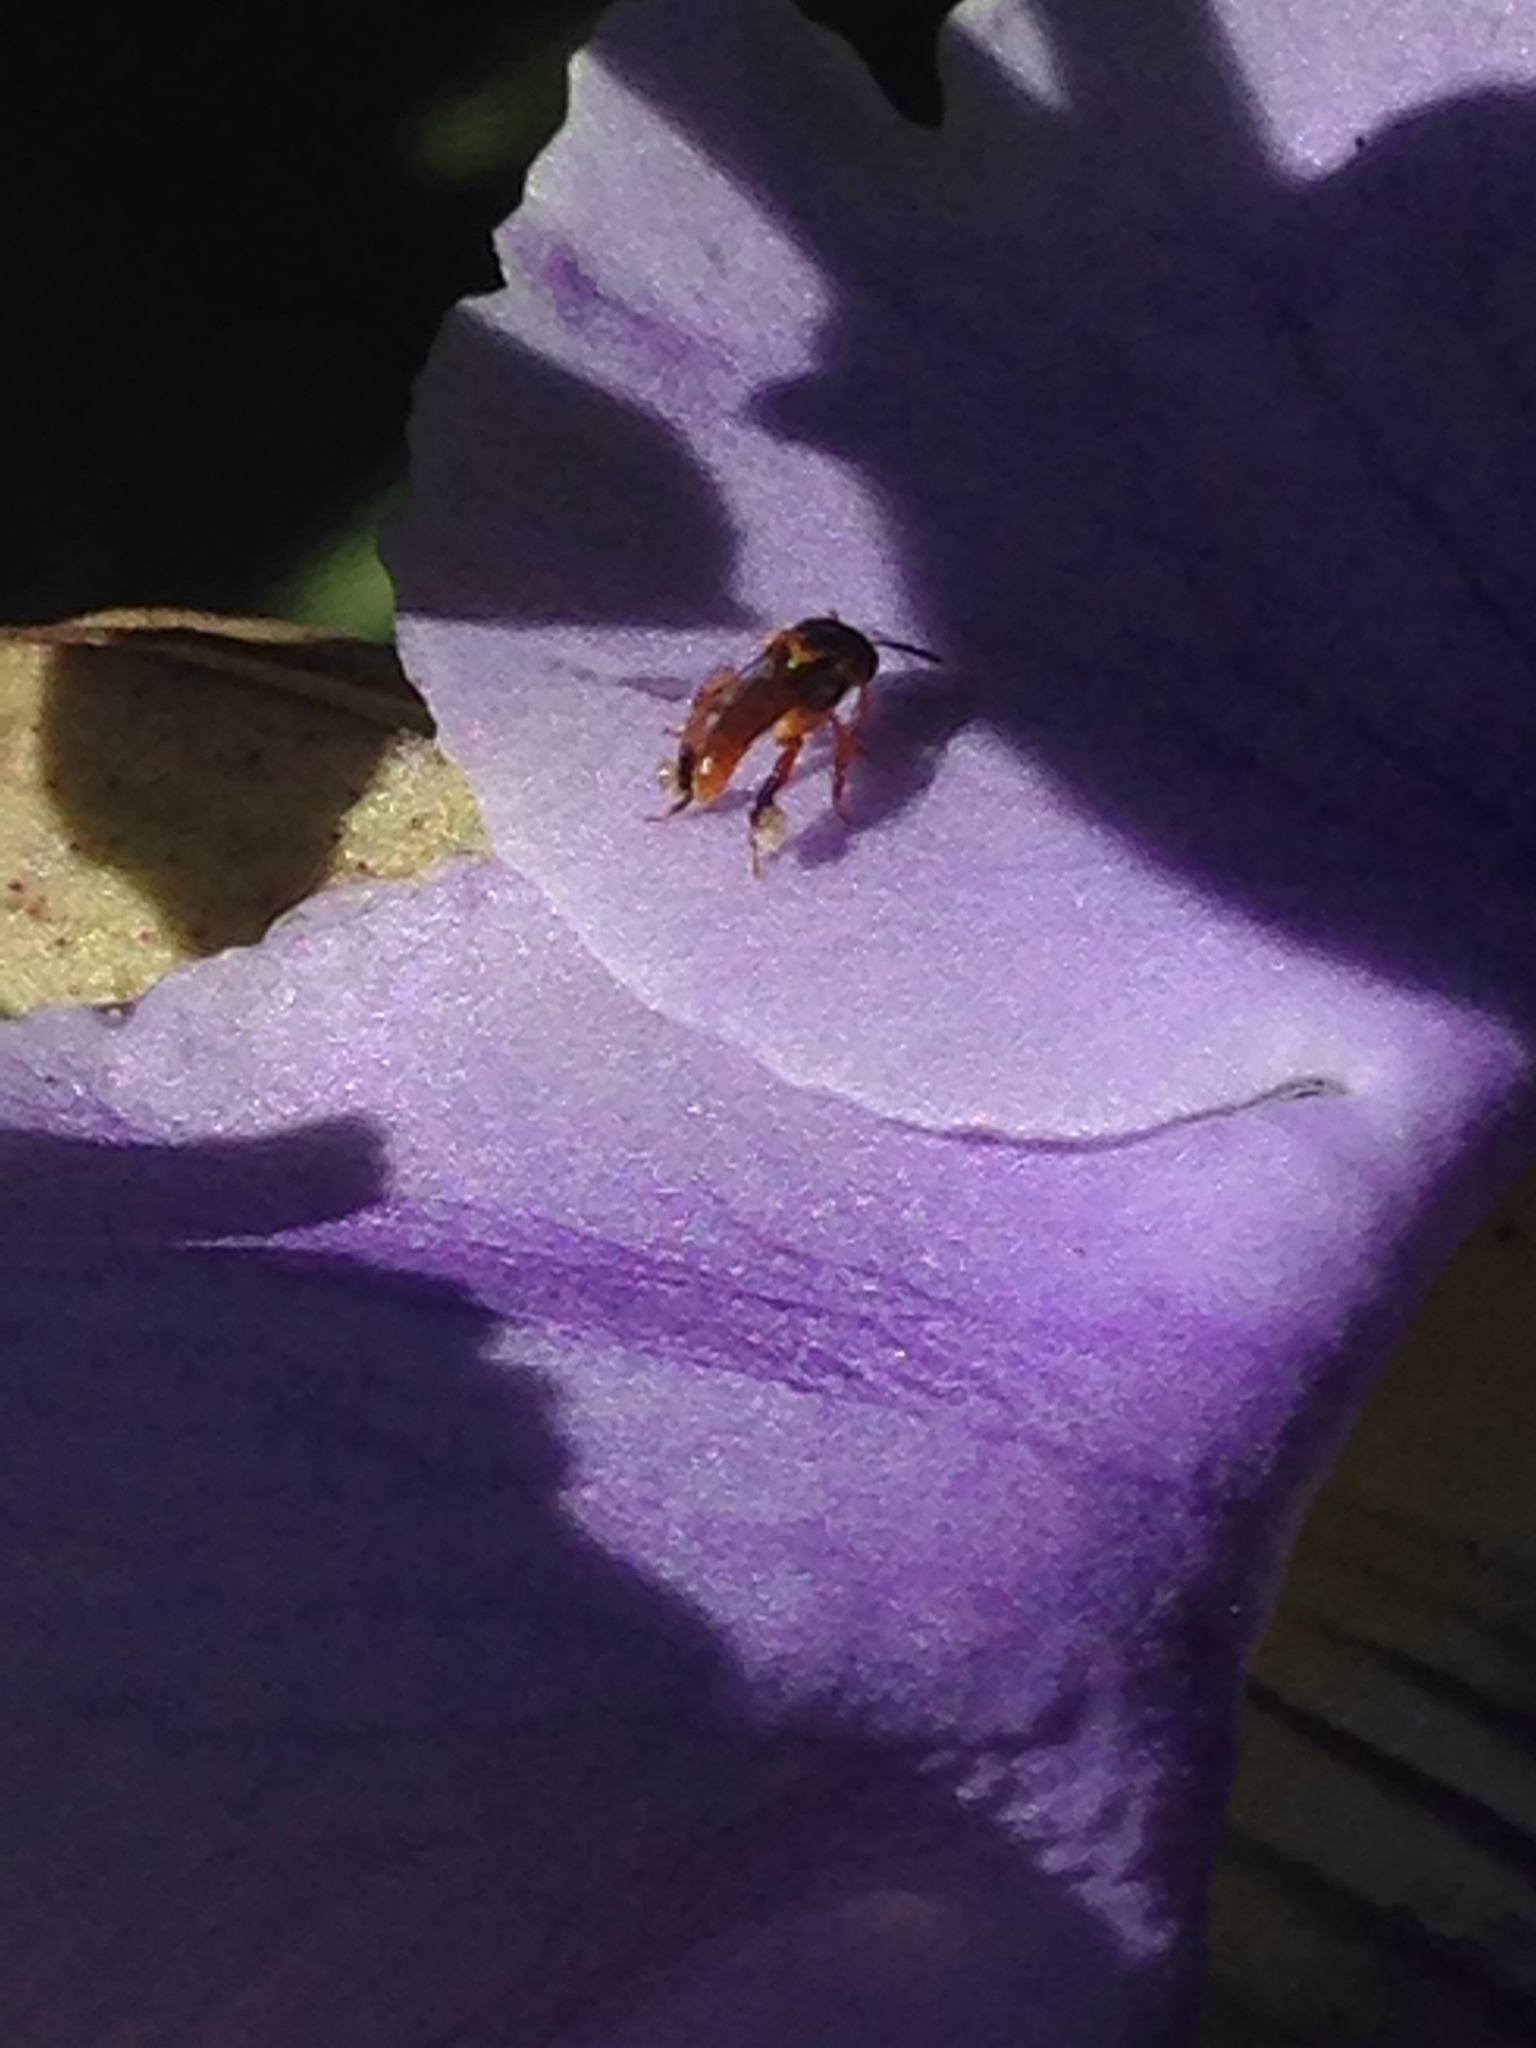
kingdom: Animalia
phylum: Arthropoda
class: Insecta
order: Hymenoptera
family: Apidae
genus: Tetragonisca
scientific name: Tetragonisca angustula
